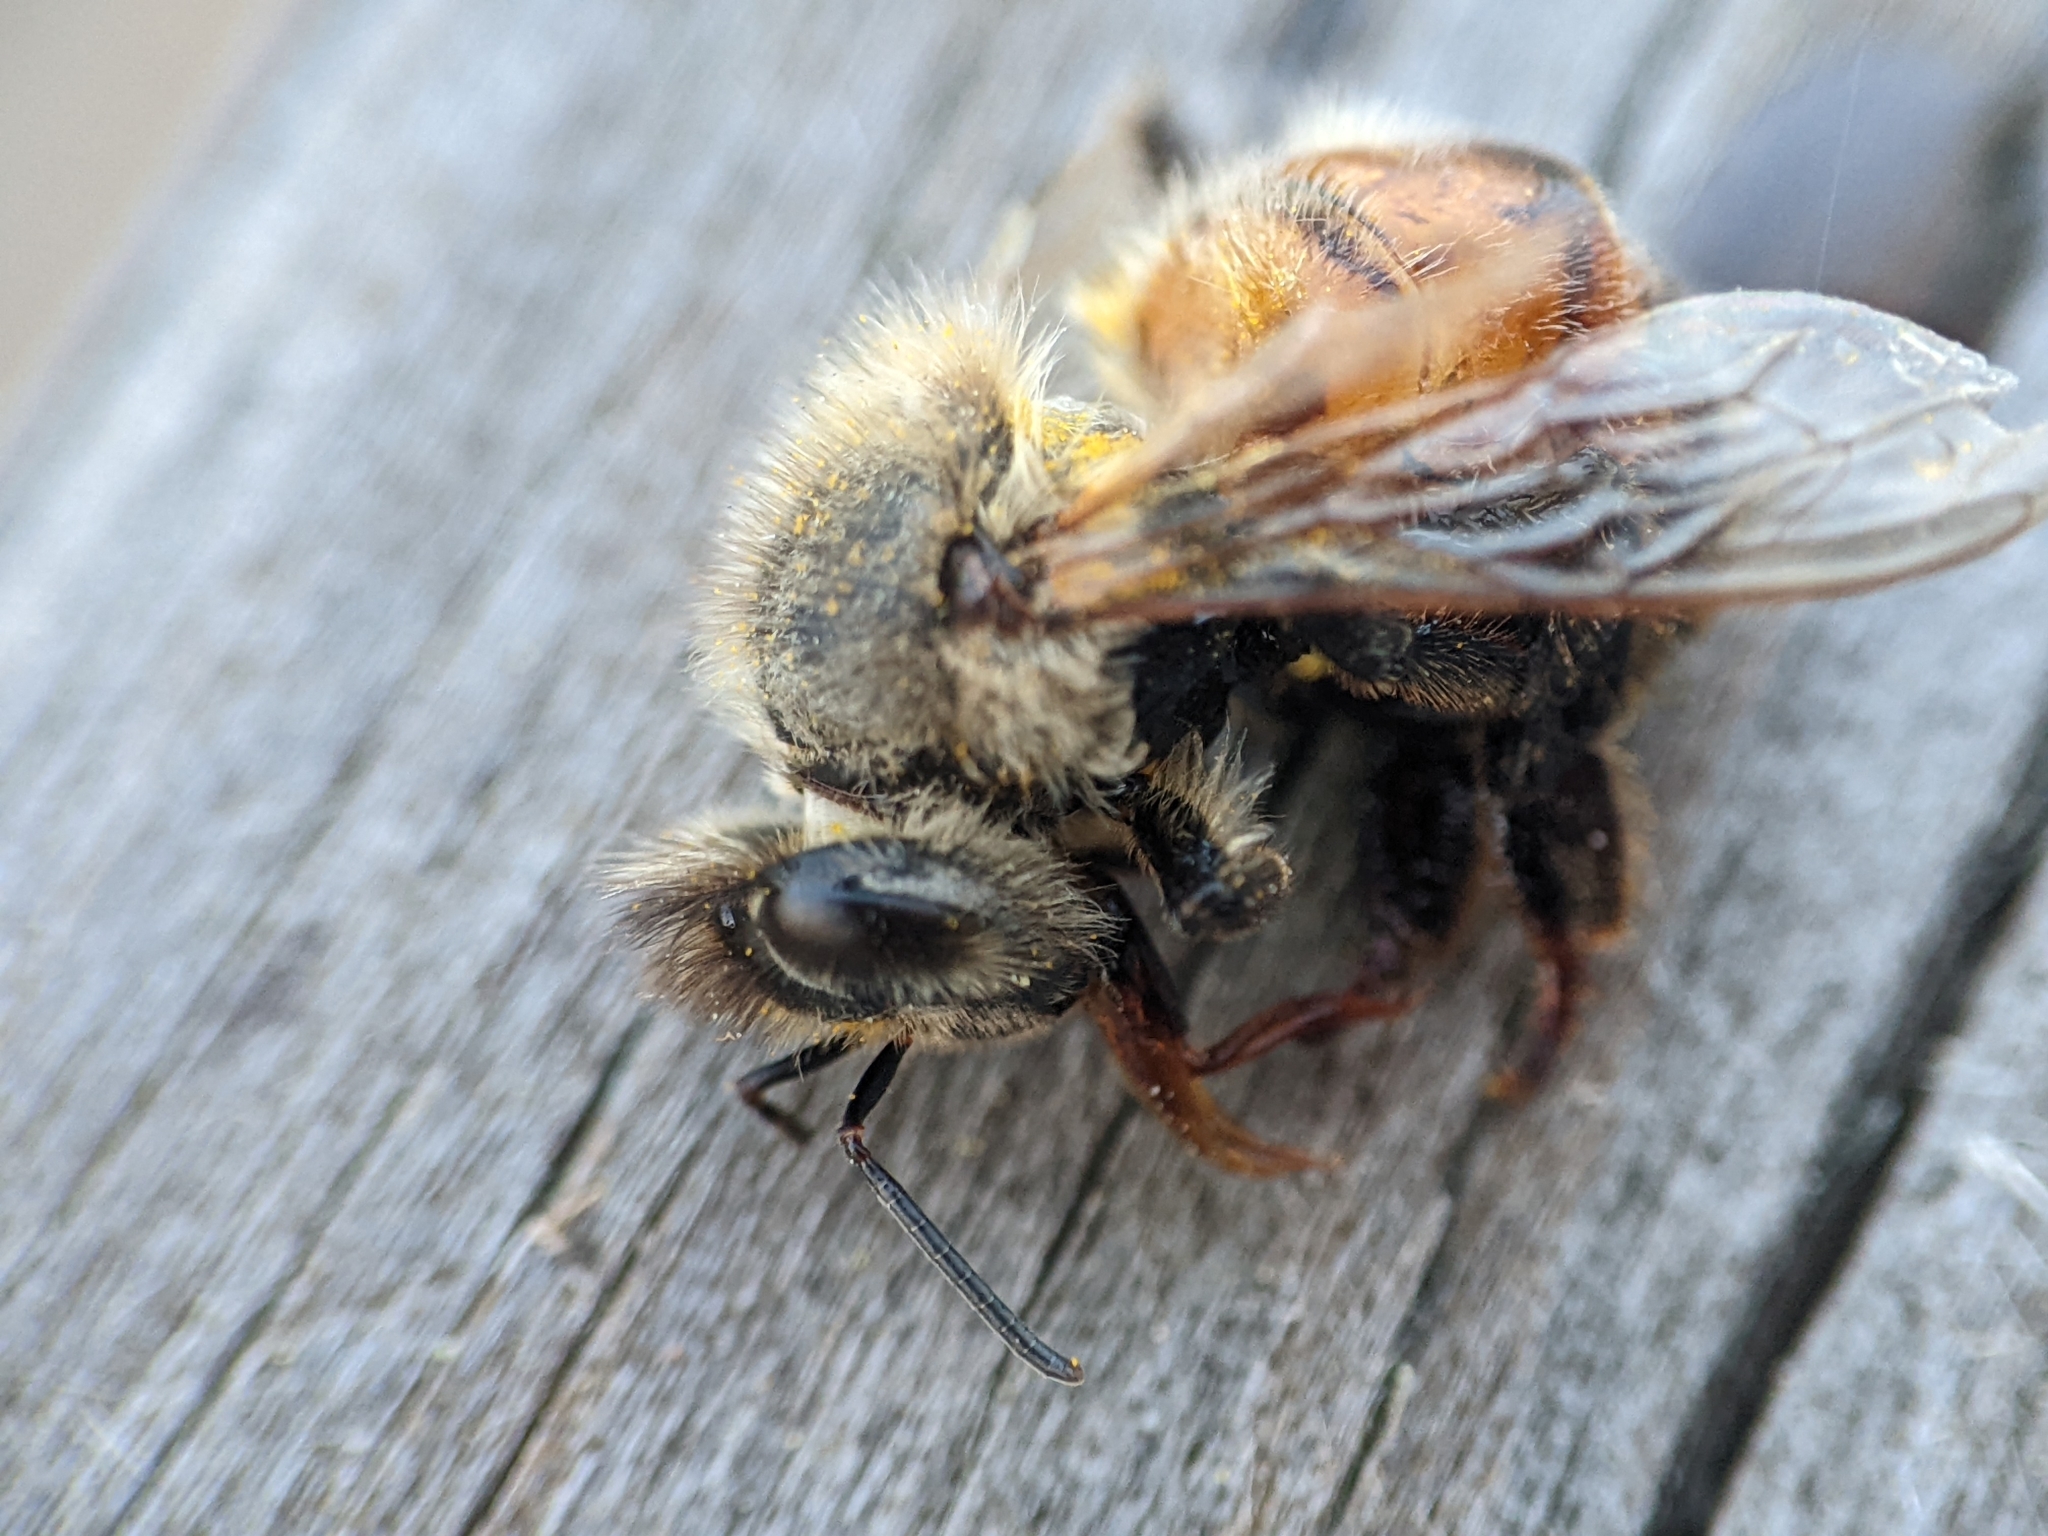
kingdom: Animalia
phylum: Arthropoda
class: Insecta
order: Hymenoptera
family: Apidae
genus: Apis
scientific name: Apis mellifera
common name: Honey bee
